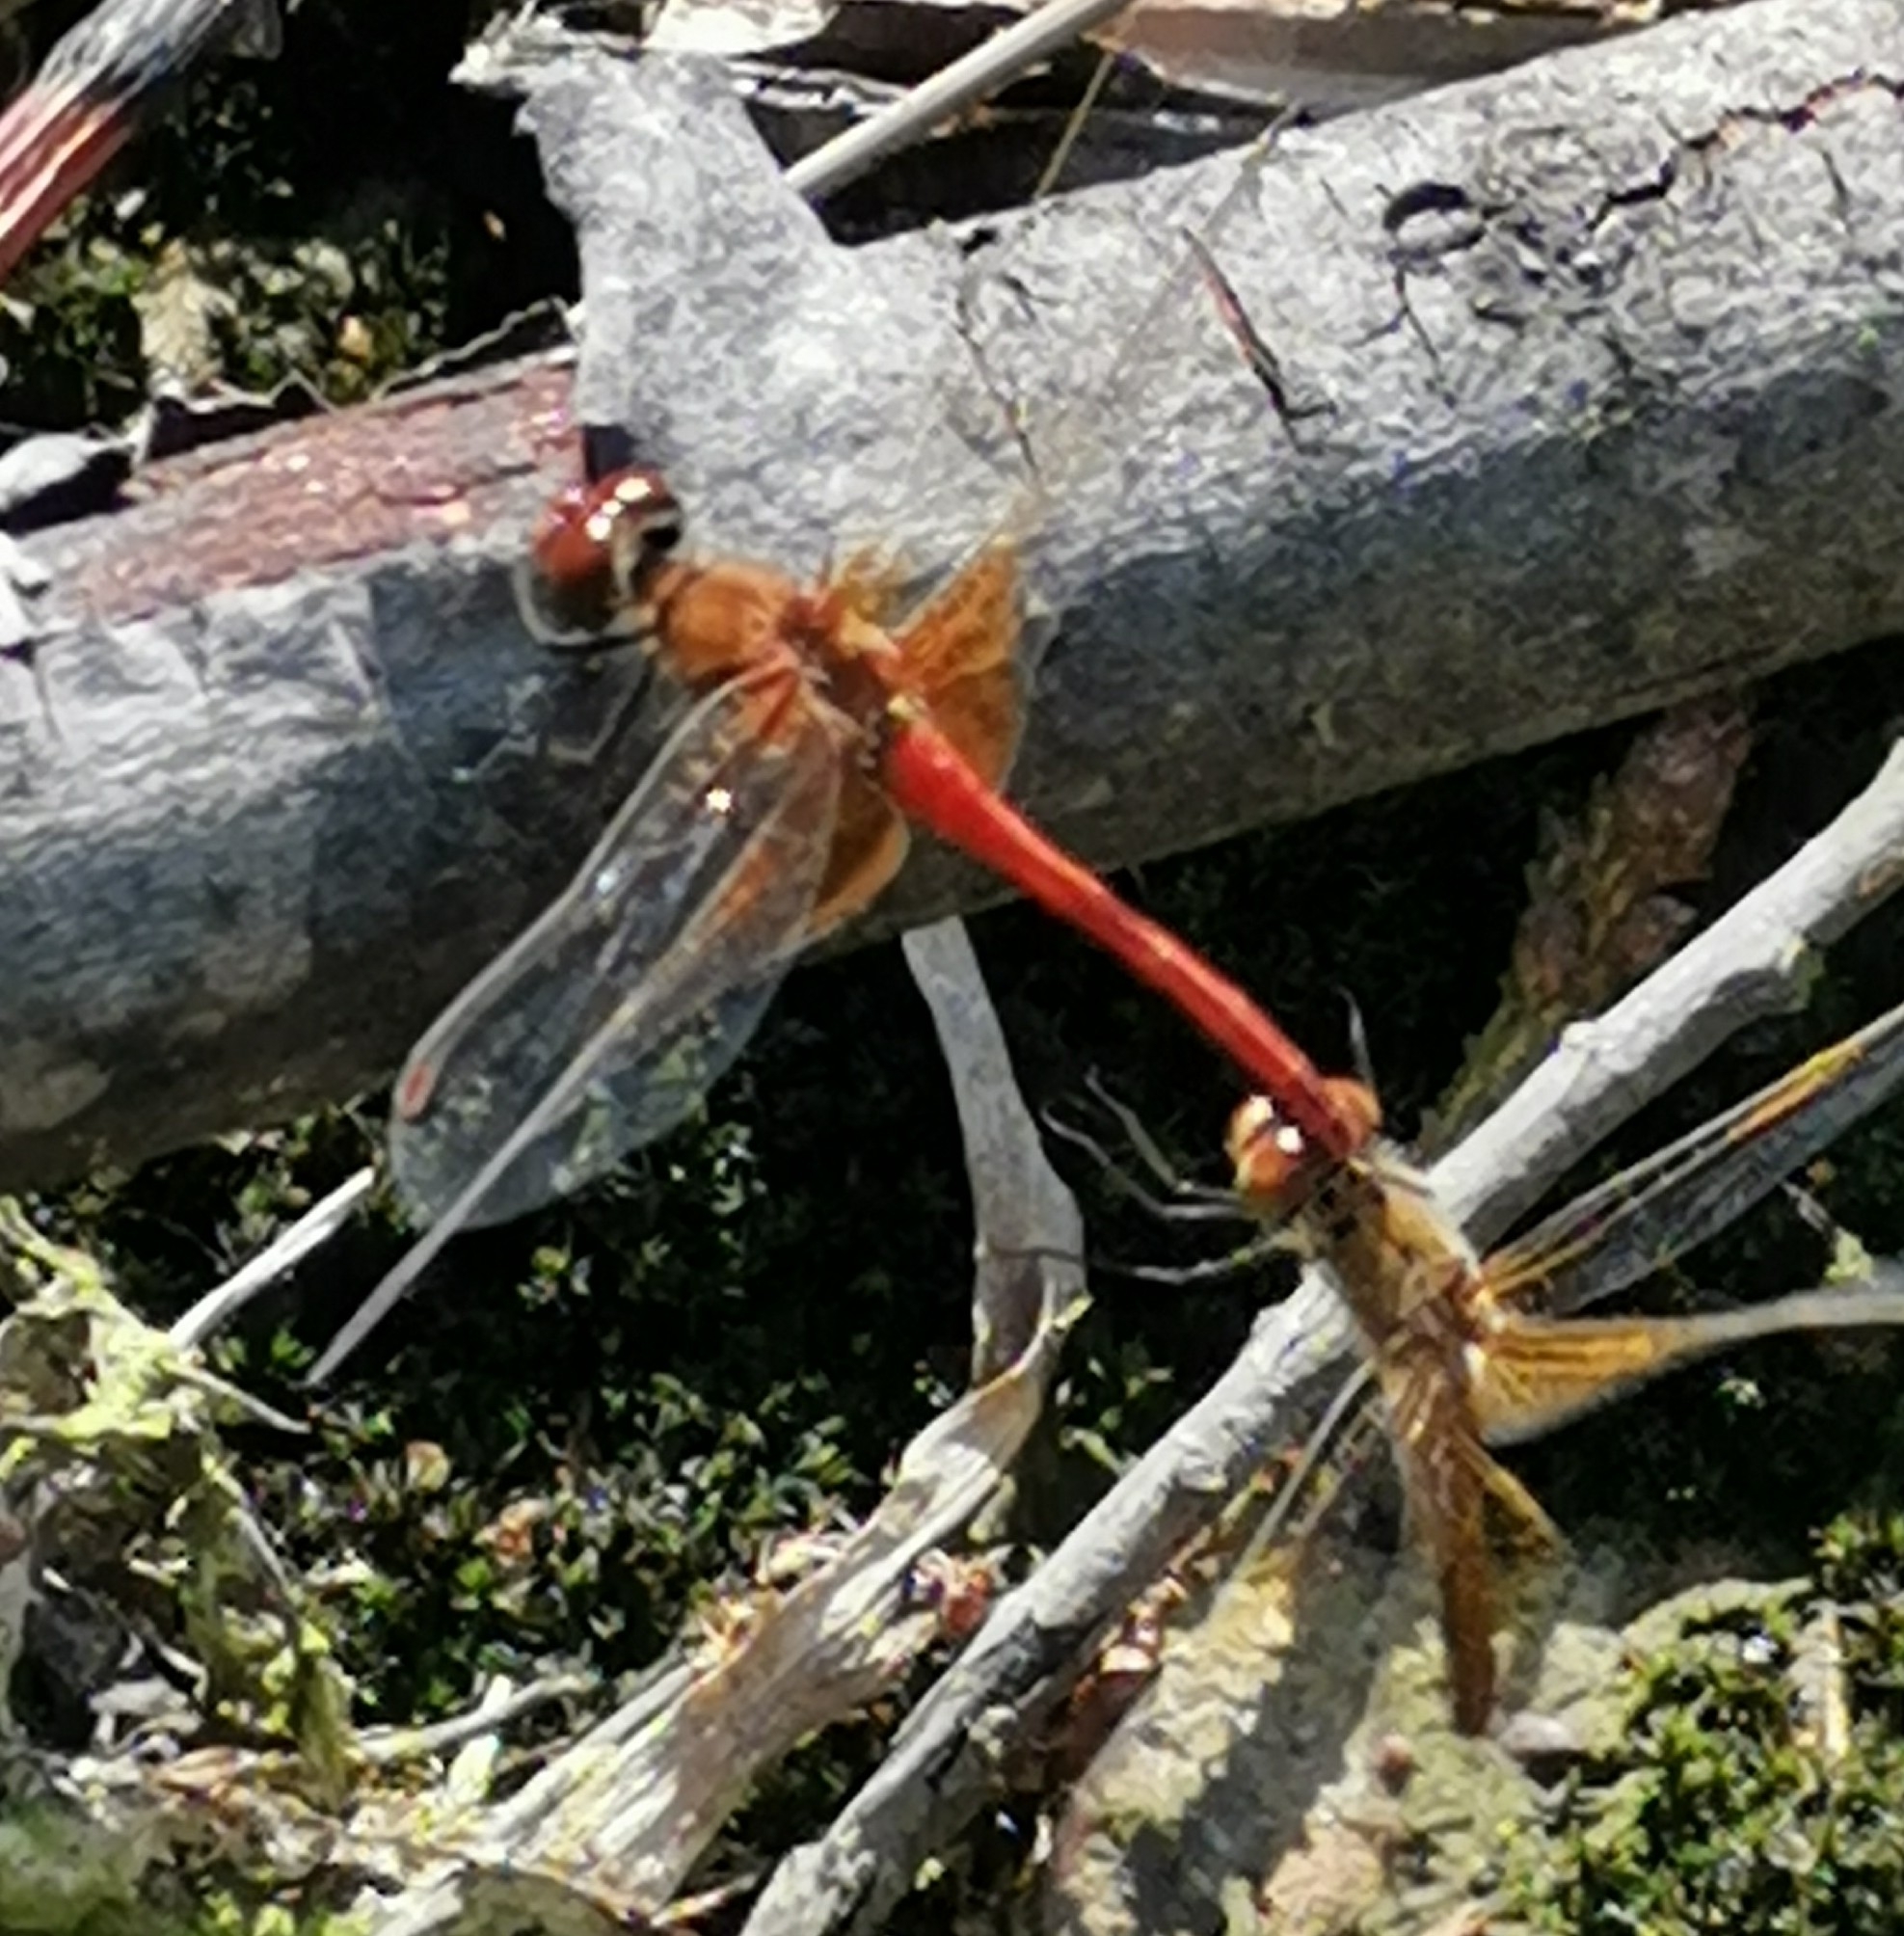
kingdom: Animalia
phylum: Arthropoda
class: Insecta
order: Odonata
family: Libellulidae
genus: Sympetrum
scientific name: Sympetrum flaveolum
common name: Yellow-winged darter
